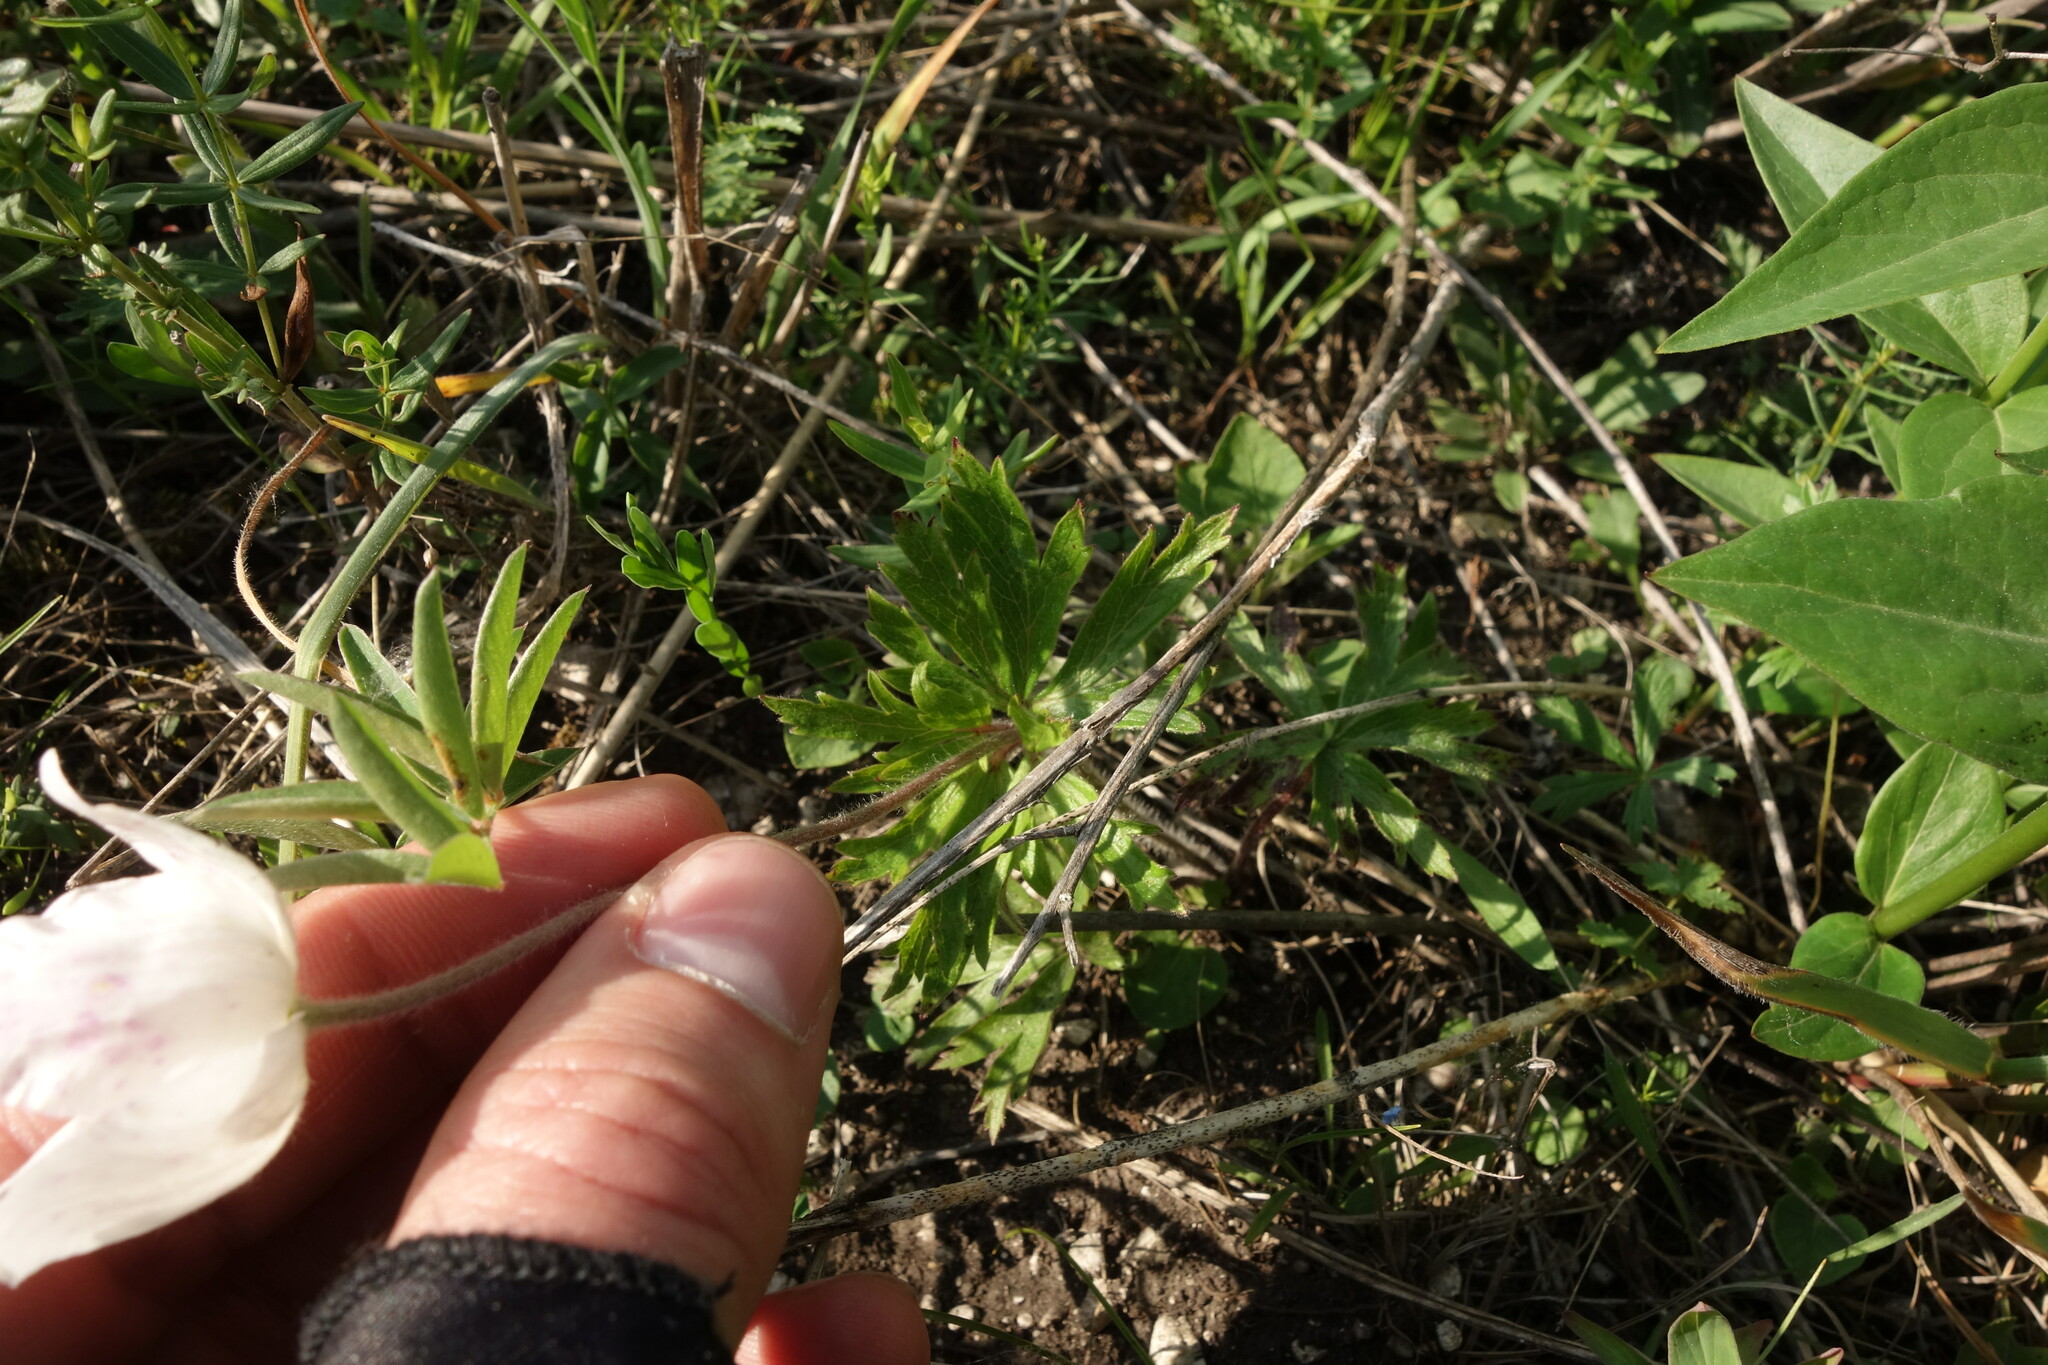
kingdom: Plantae
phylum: Tracheophyta
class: Magnoliopsida
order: Ranunculales
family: Ranunculaceae
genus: Anemone
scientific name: Anemone sylvestris
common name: Snowdrop anemone
